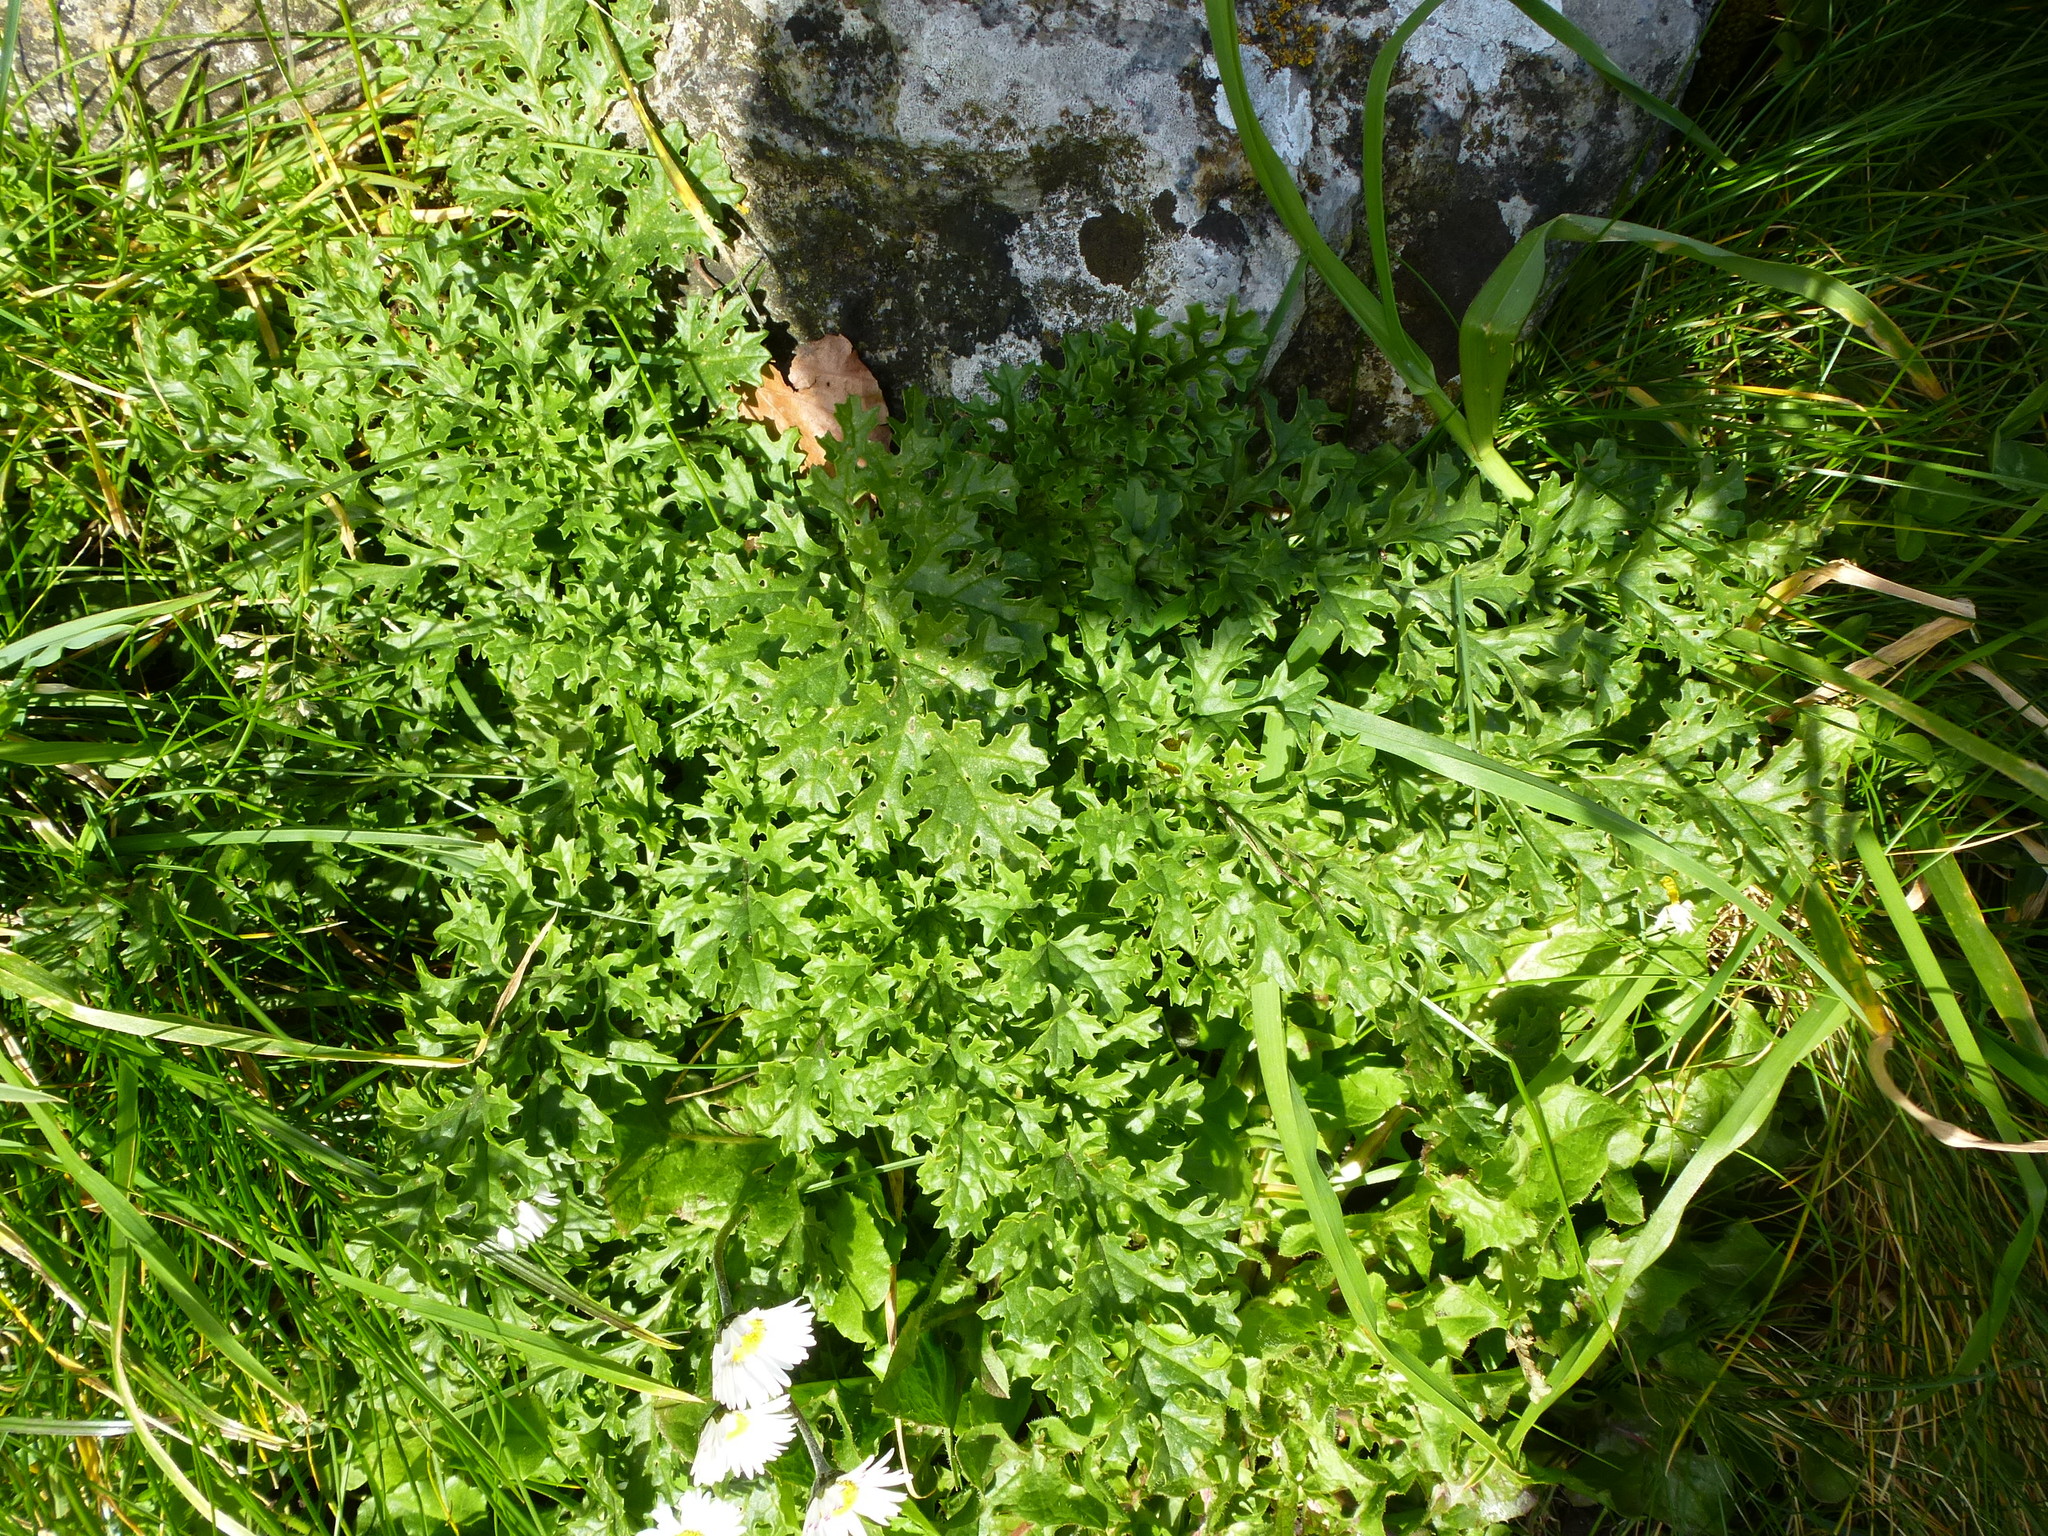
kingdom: Plantae
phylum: Tracheophyta
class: Magnoliopsida
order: Asterales
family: Asteraceae
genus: Jacobaea
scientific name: Jacobaea vulgaris
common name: Stinking willie
